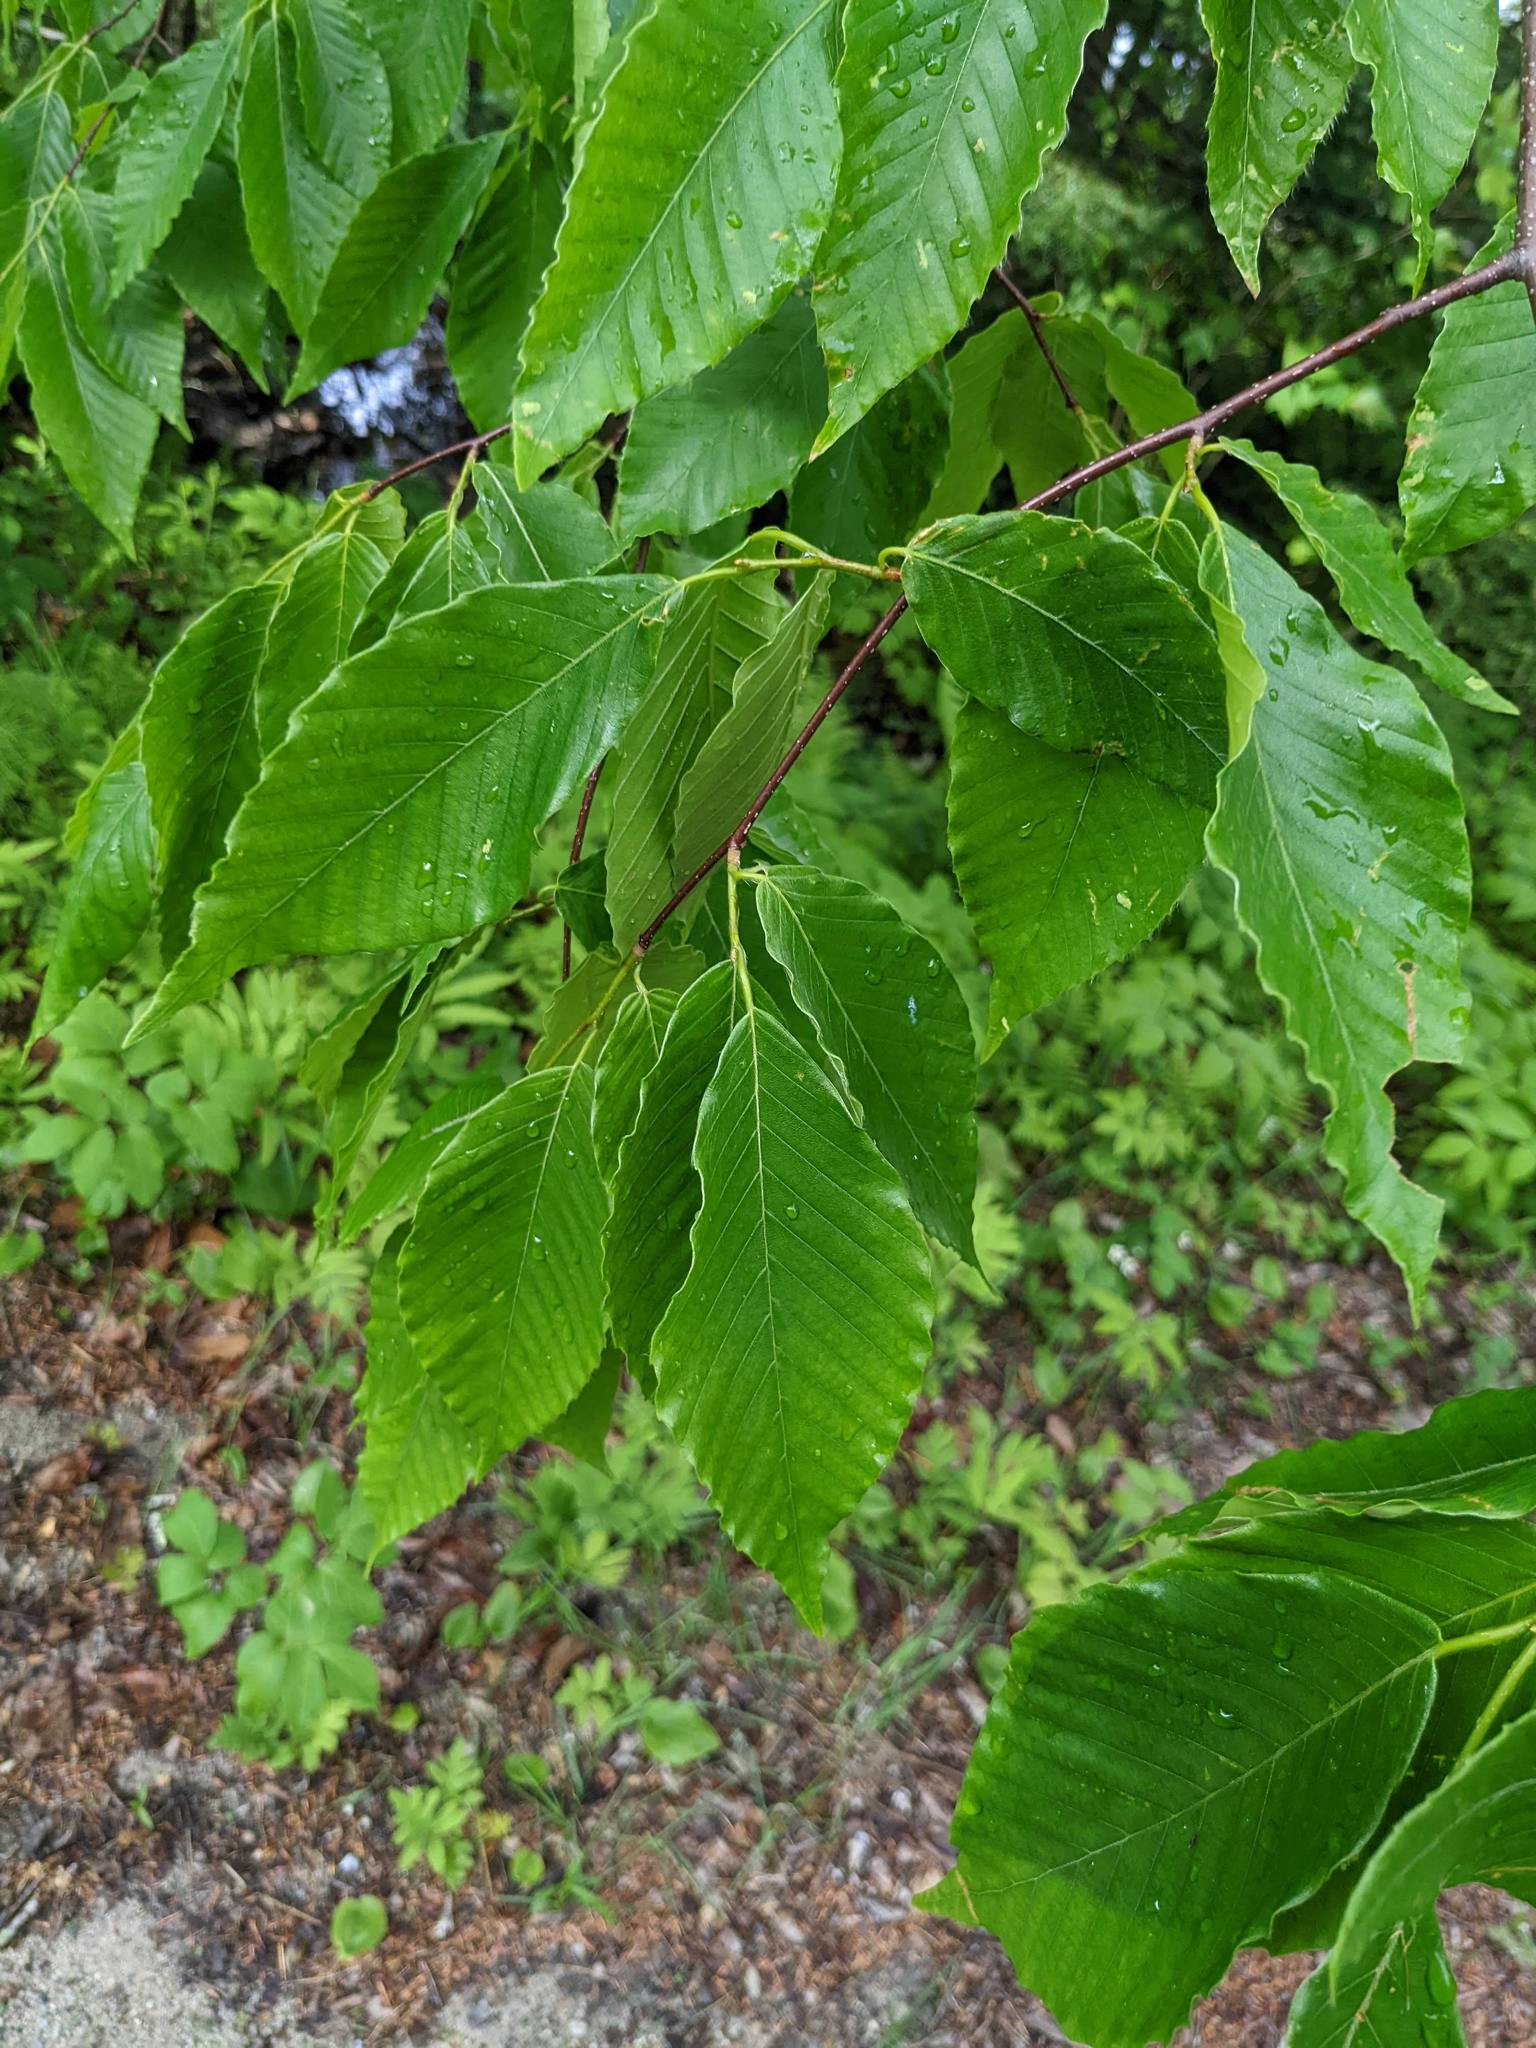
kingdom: Plantae
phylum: Tracheophyta
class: Magnoliopsida
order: Fagales
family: Fagaceae
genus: Fagus
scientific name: Fagus grandifolia
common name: American beech
